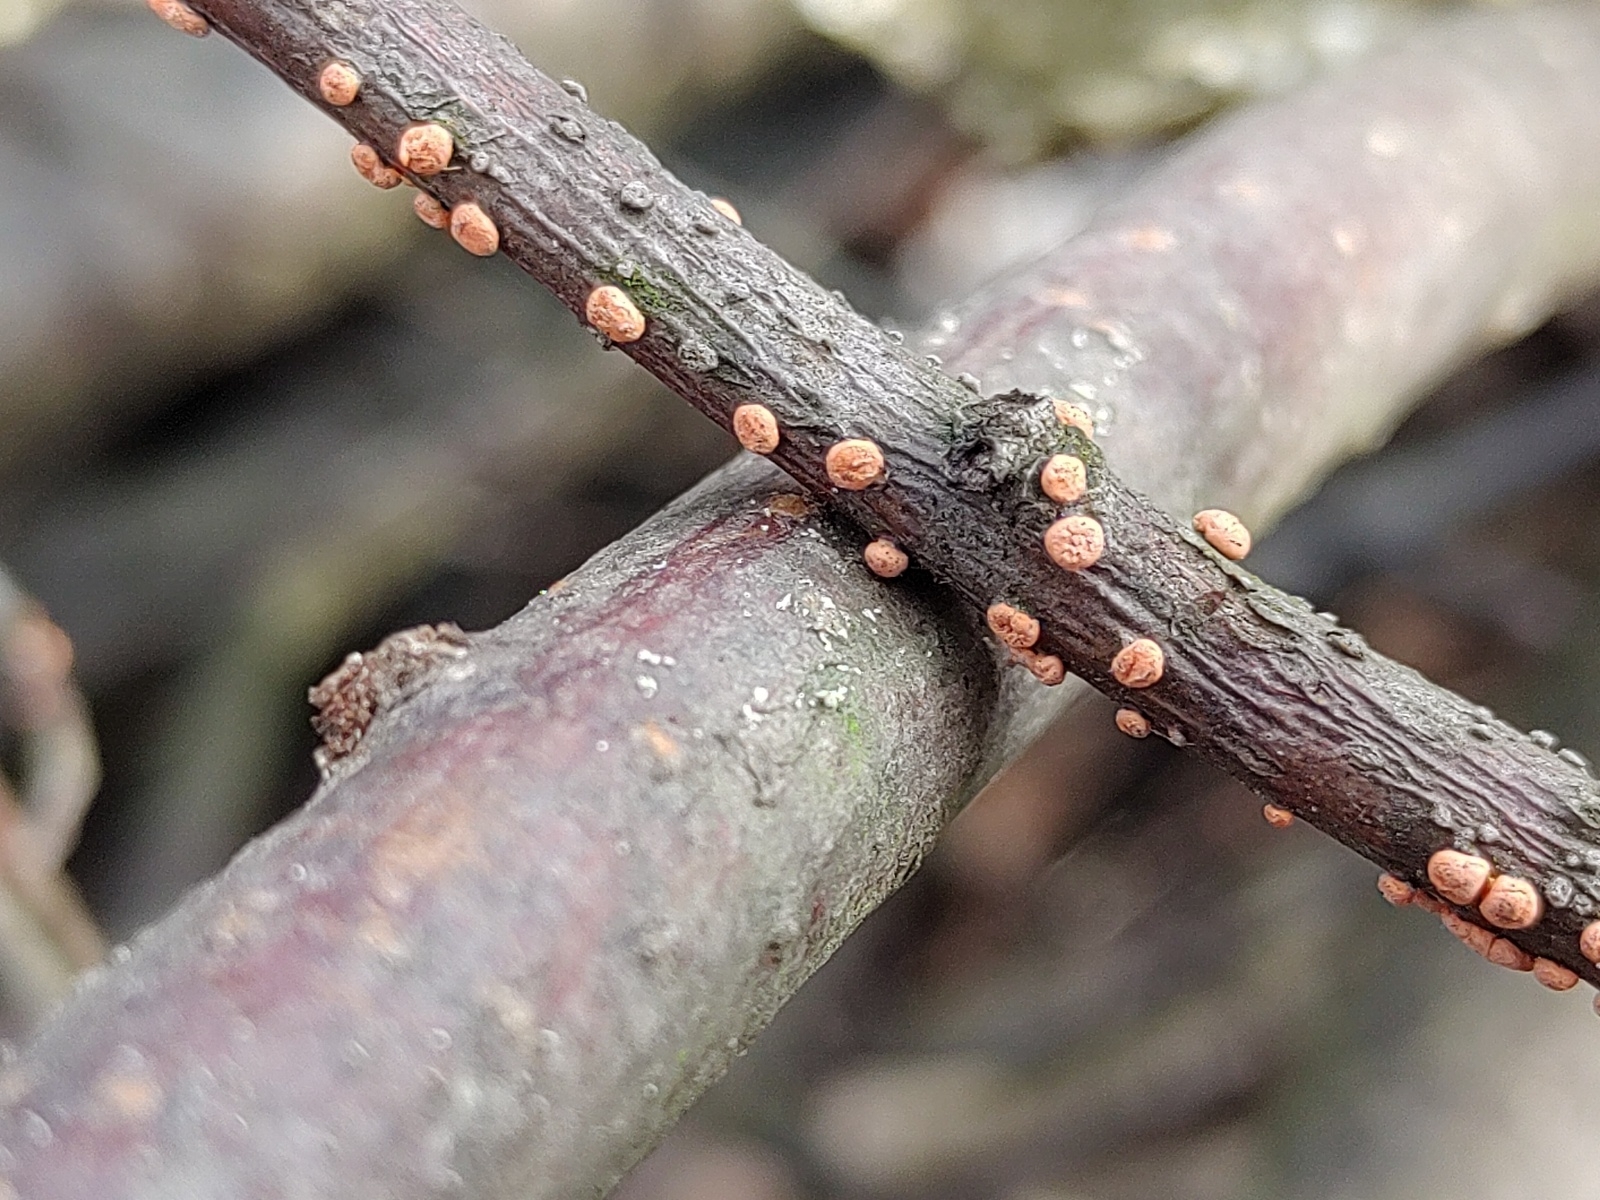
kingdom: Fungi
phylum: Ascomycota
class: Sordariomycetes
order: Hypocreales
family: Nectriaceae
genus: Nectria
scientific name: Nectria cinnabarina
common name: Coral spot
